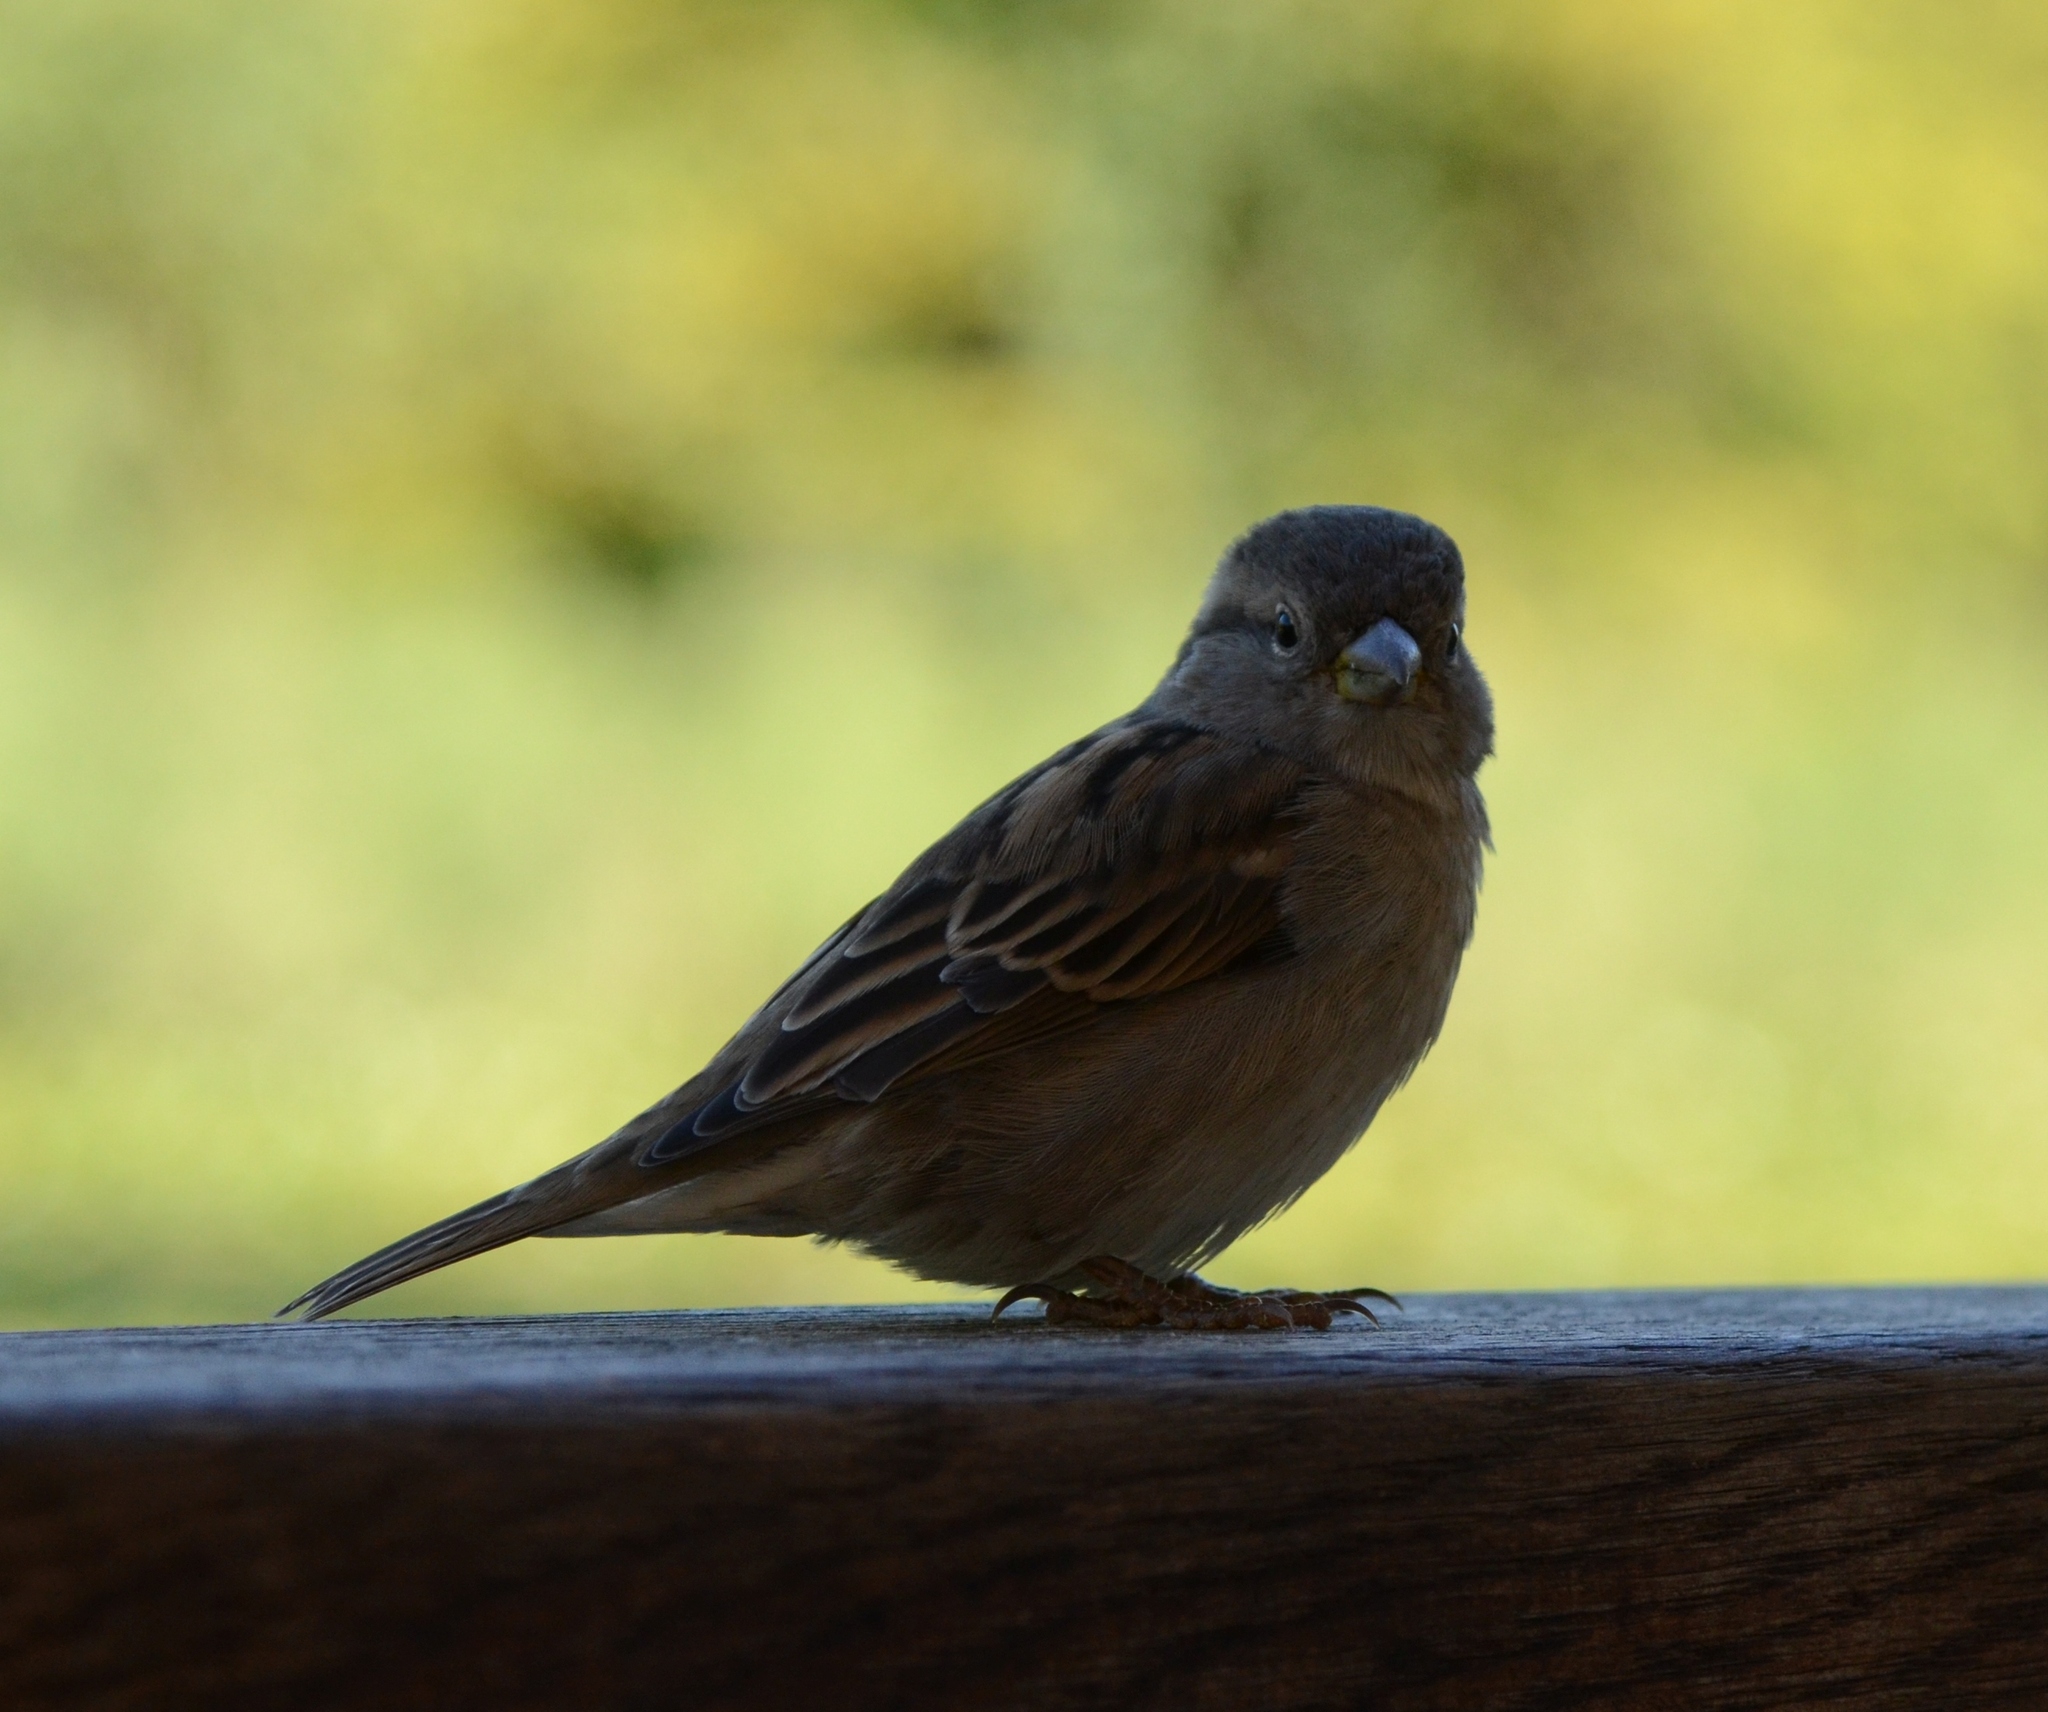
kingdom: Animalia
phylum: Chordata
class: Aves
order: Passeriformes
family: Passeridae
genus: Passer
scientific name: Passer domesticus
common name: House sparrow
